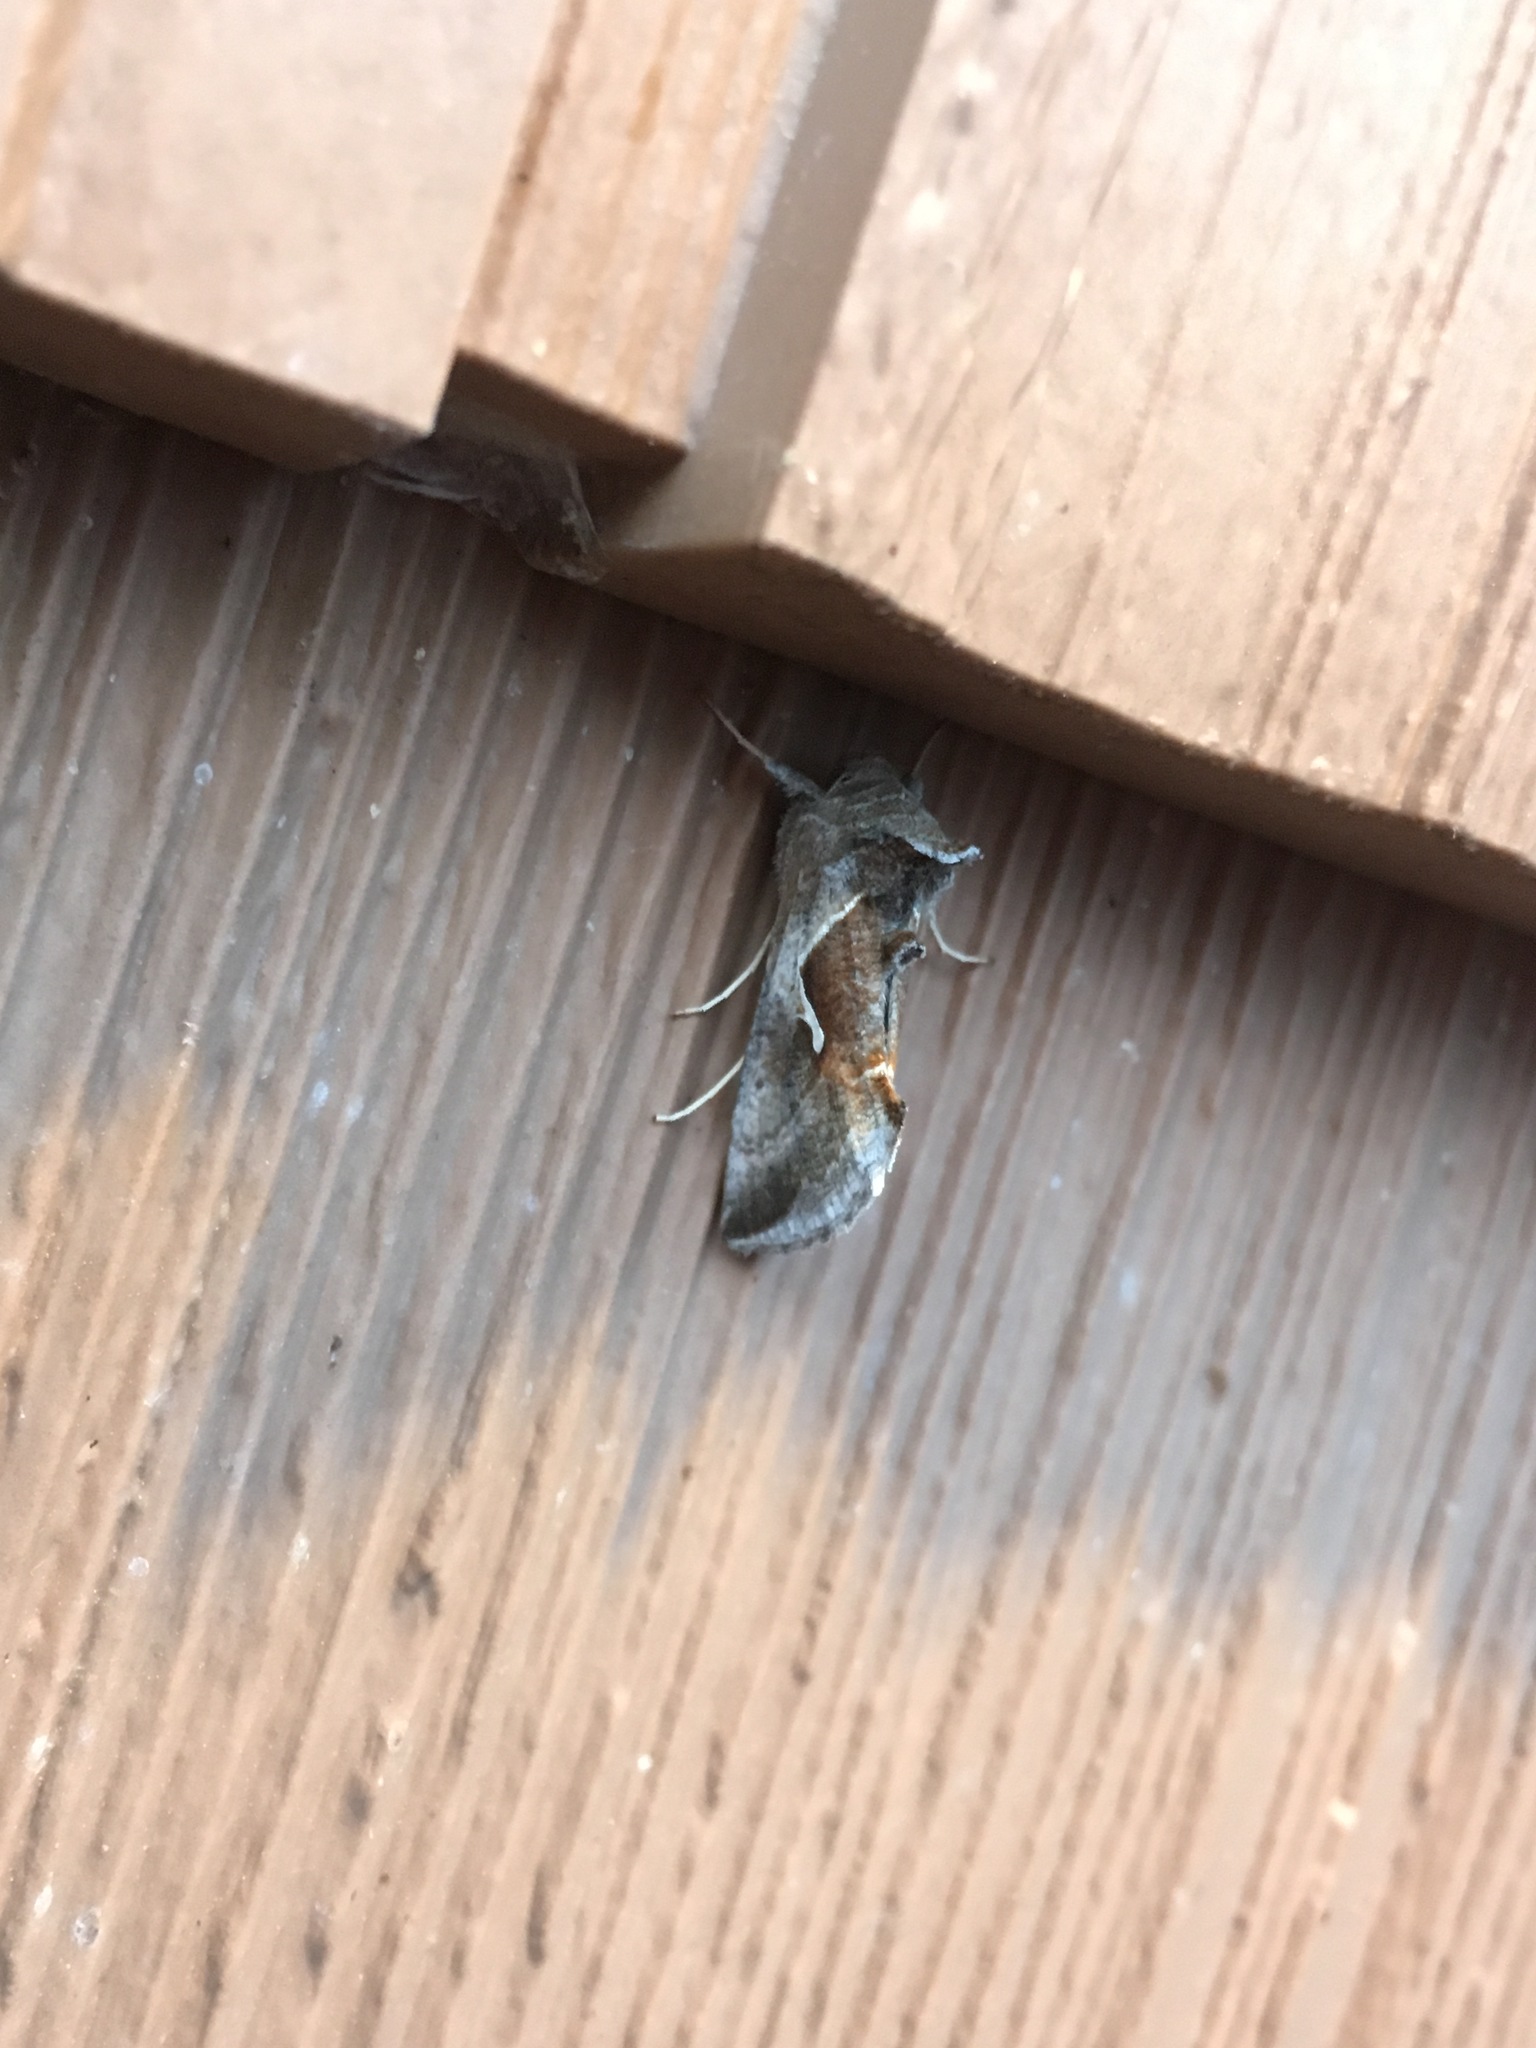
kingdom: Animalia
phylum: Arthropoda
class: Insecta
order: Lepidoptera
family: Noctuidae
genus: Anagrapha
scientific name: Anagrapha falcifera
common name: Celery looper
